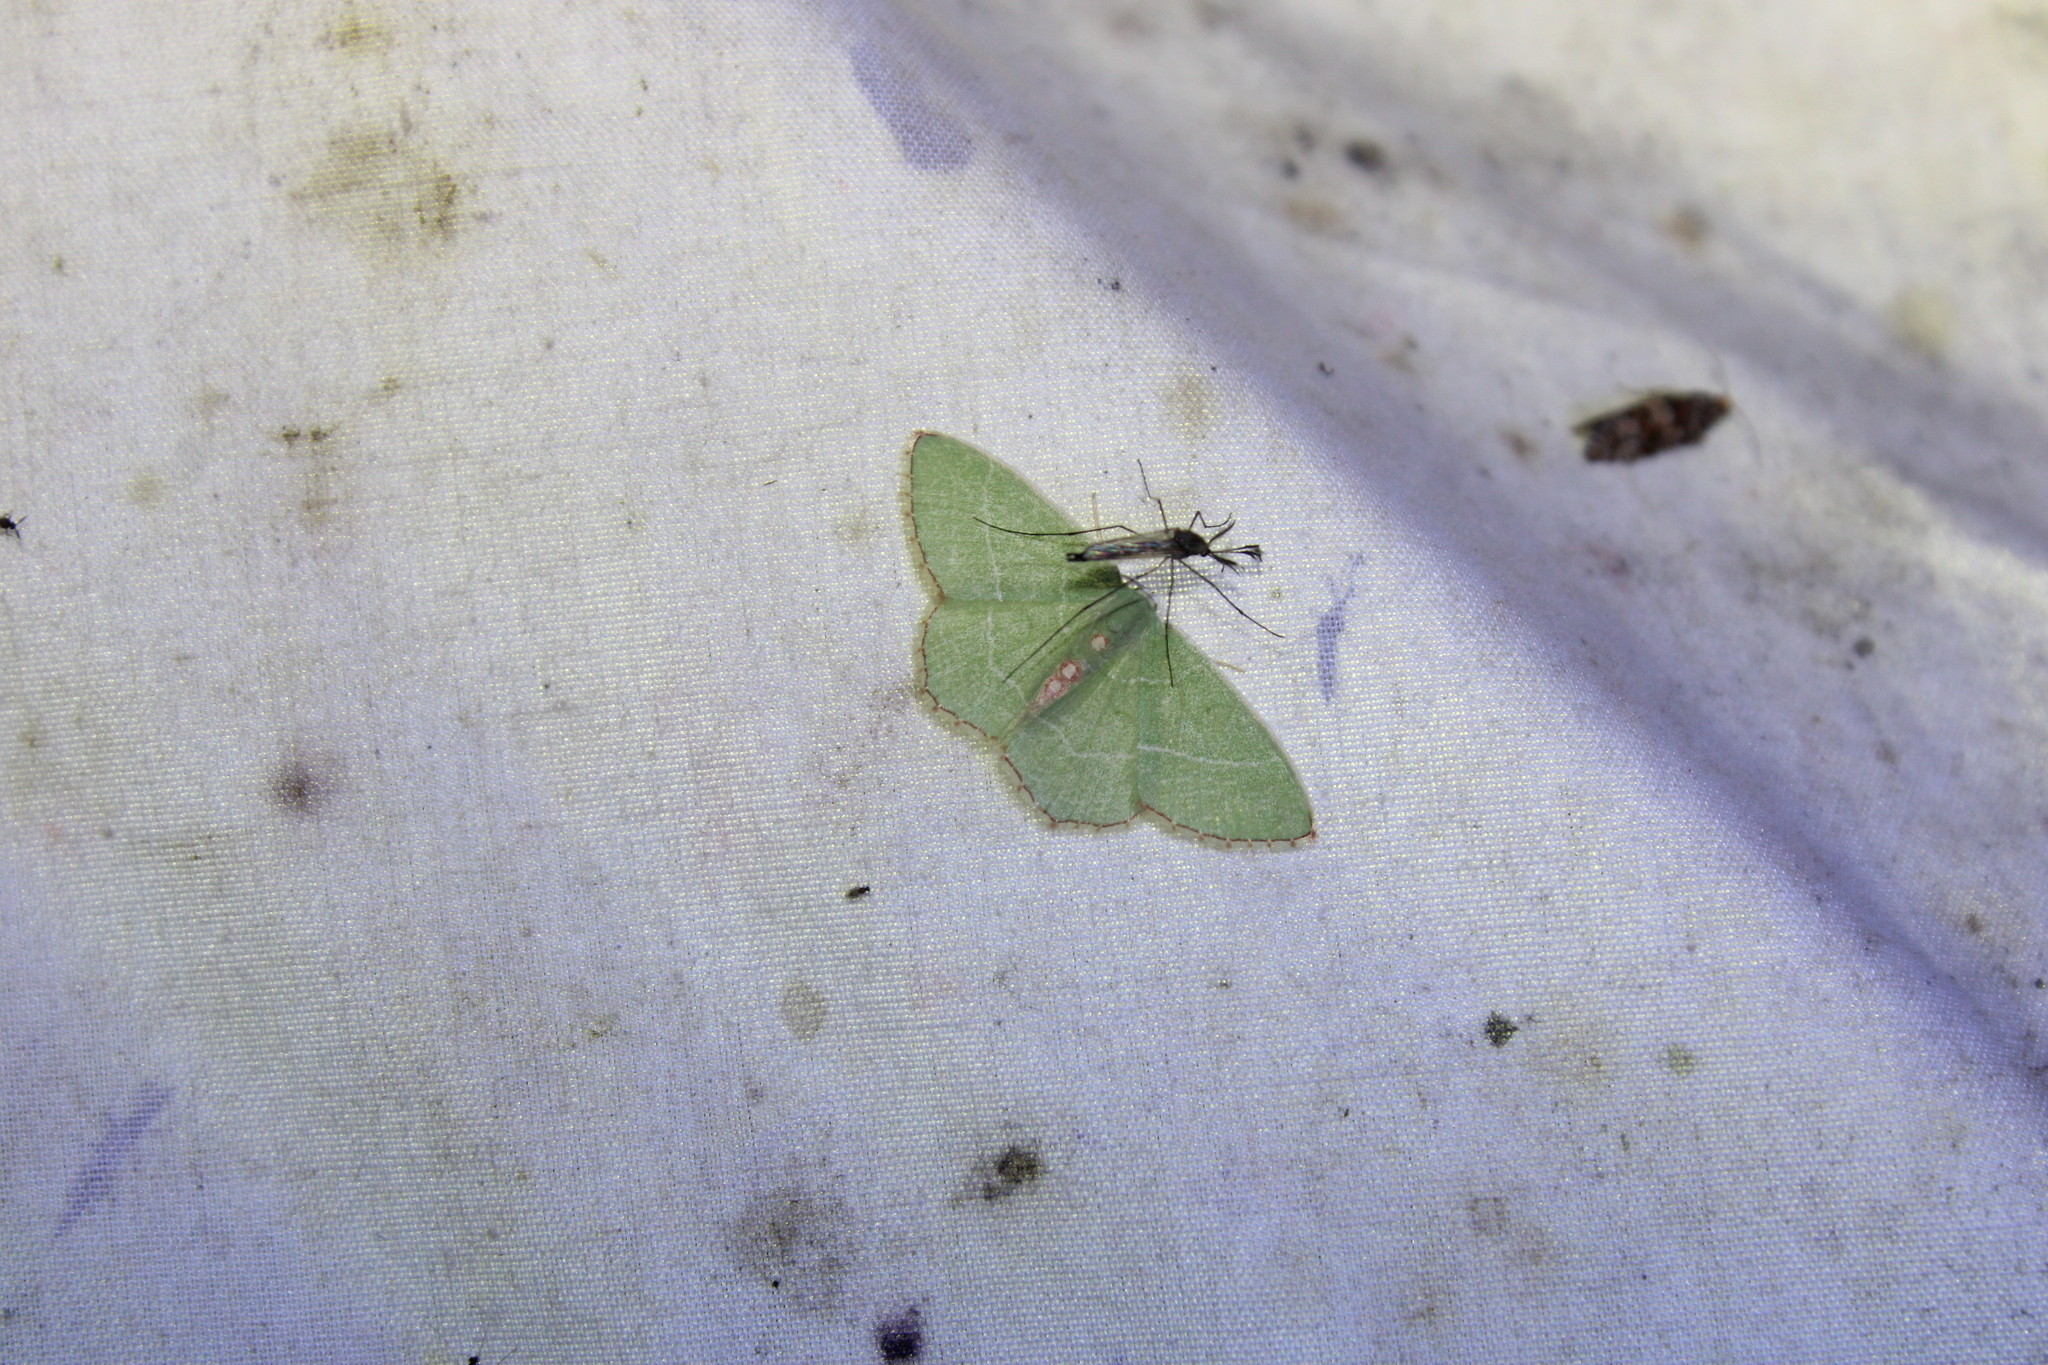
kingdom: Animalia
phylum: Arthropoda
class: Insecta
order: Lepidoptera
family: Geometridae
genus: Nemoria
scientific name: Nemoria bistriaria
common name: Red-fringed emerald
